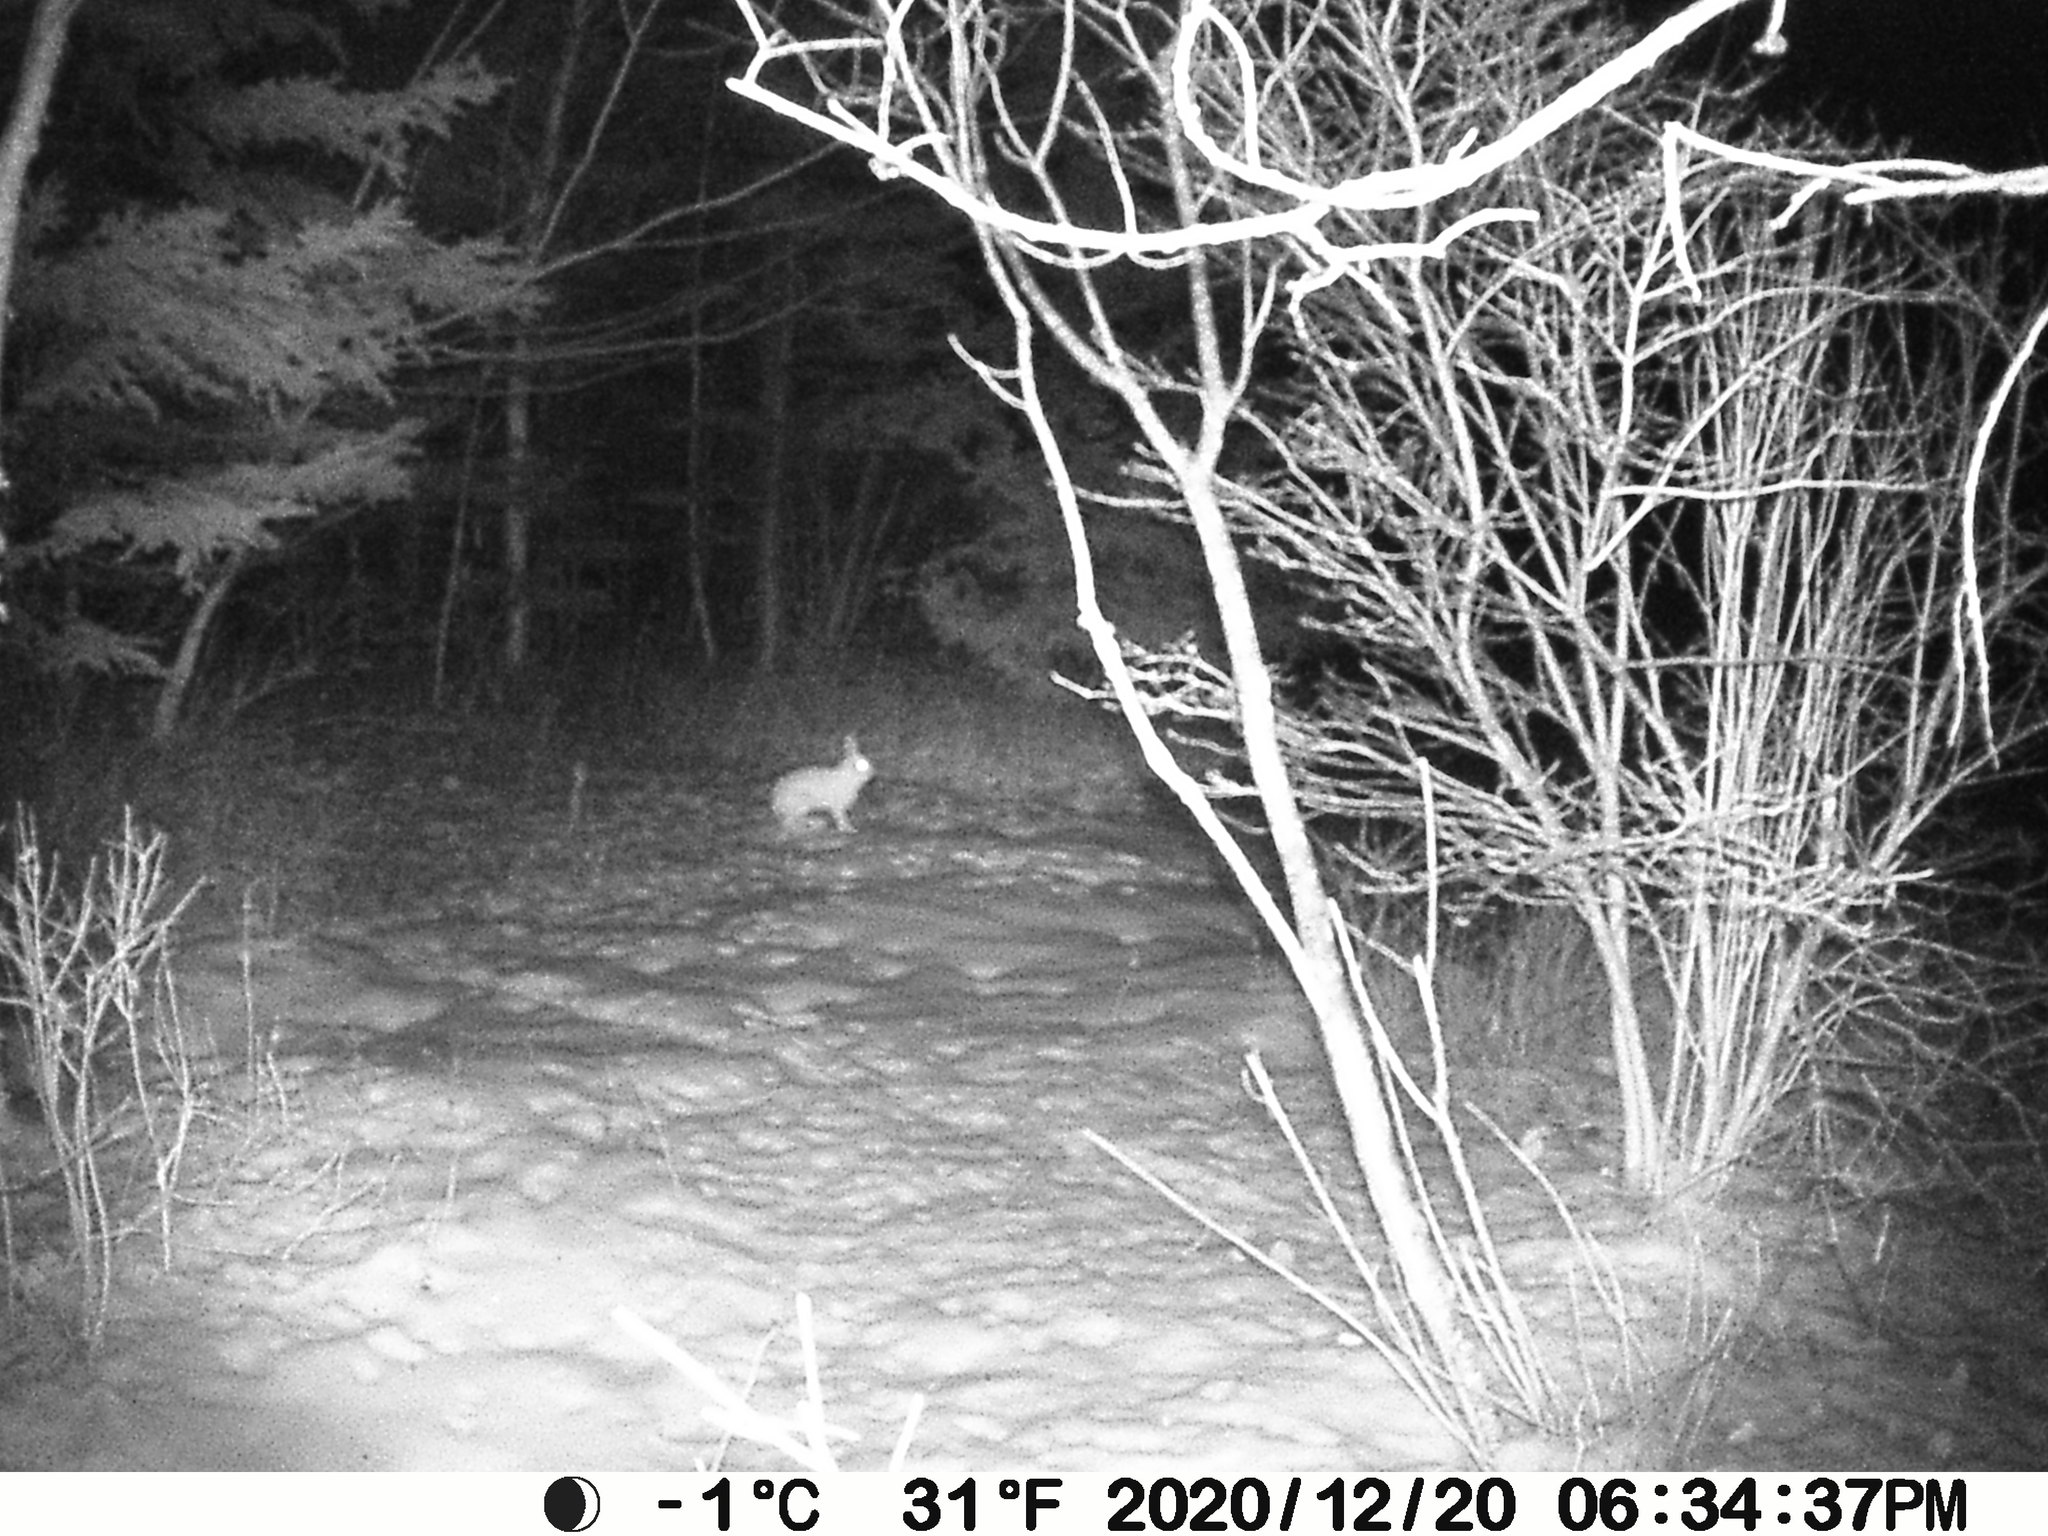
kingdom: Animalia
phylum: Chordata
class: Mammalia
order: Lagomorpha
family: Leporidae
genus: Lepus
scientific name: Lepus americanus
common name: Snowshoe hare
